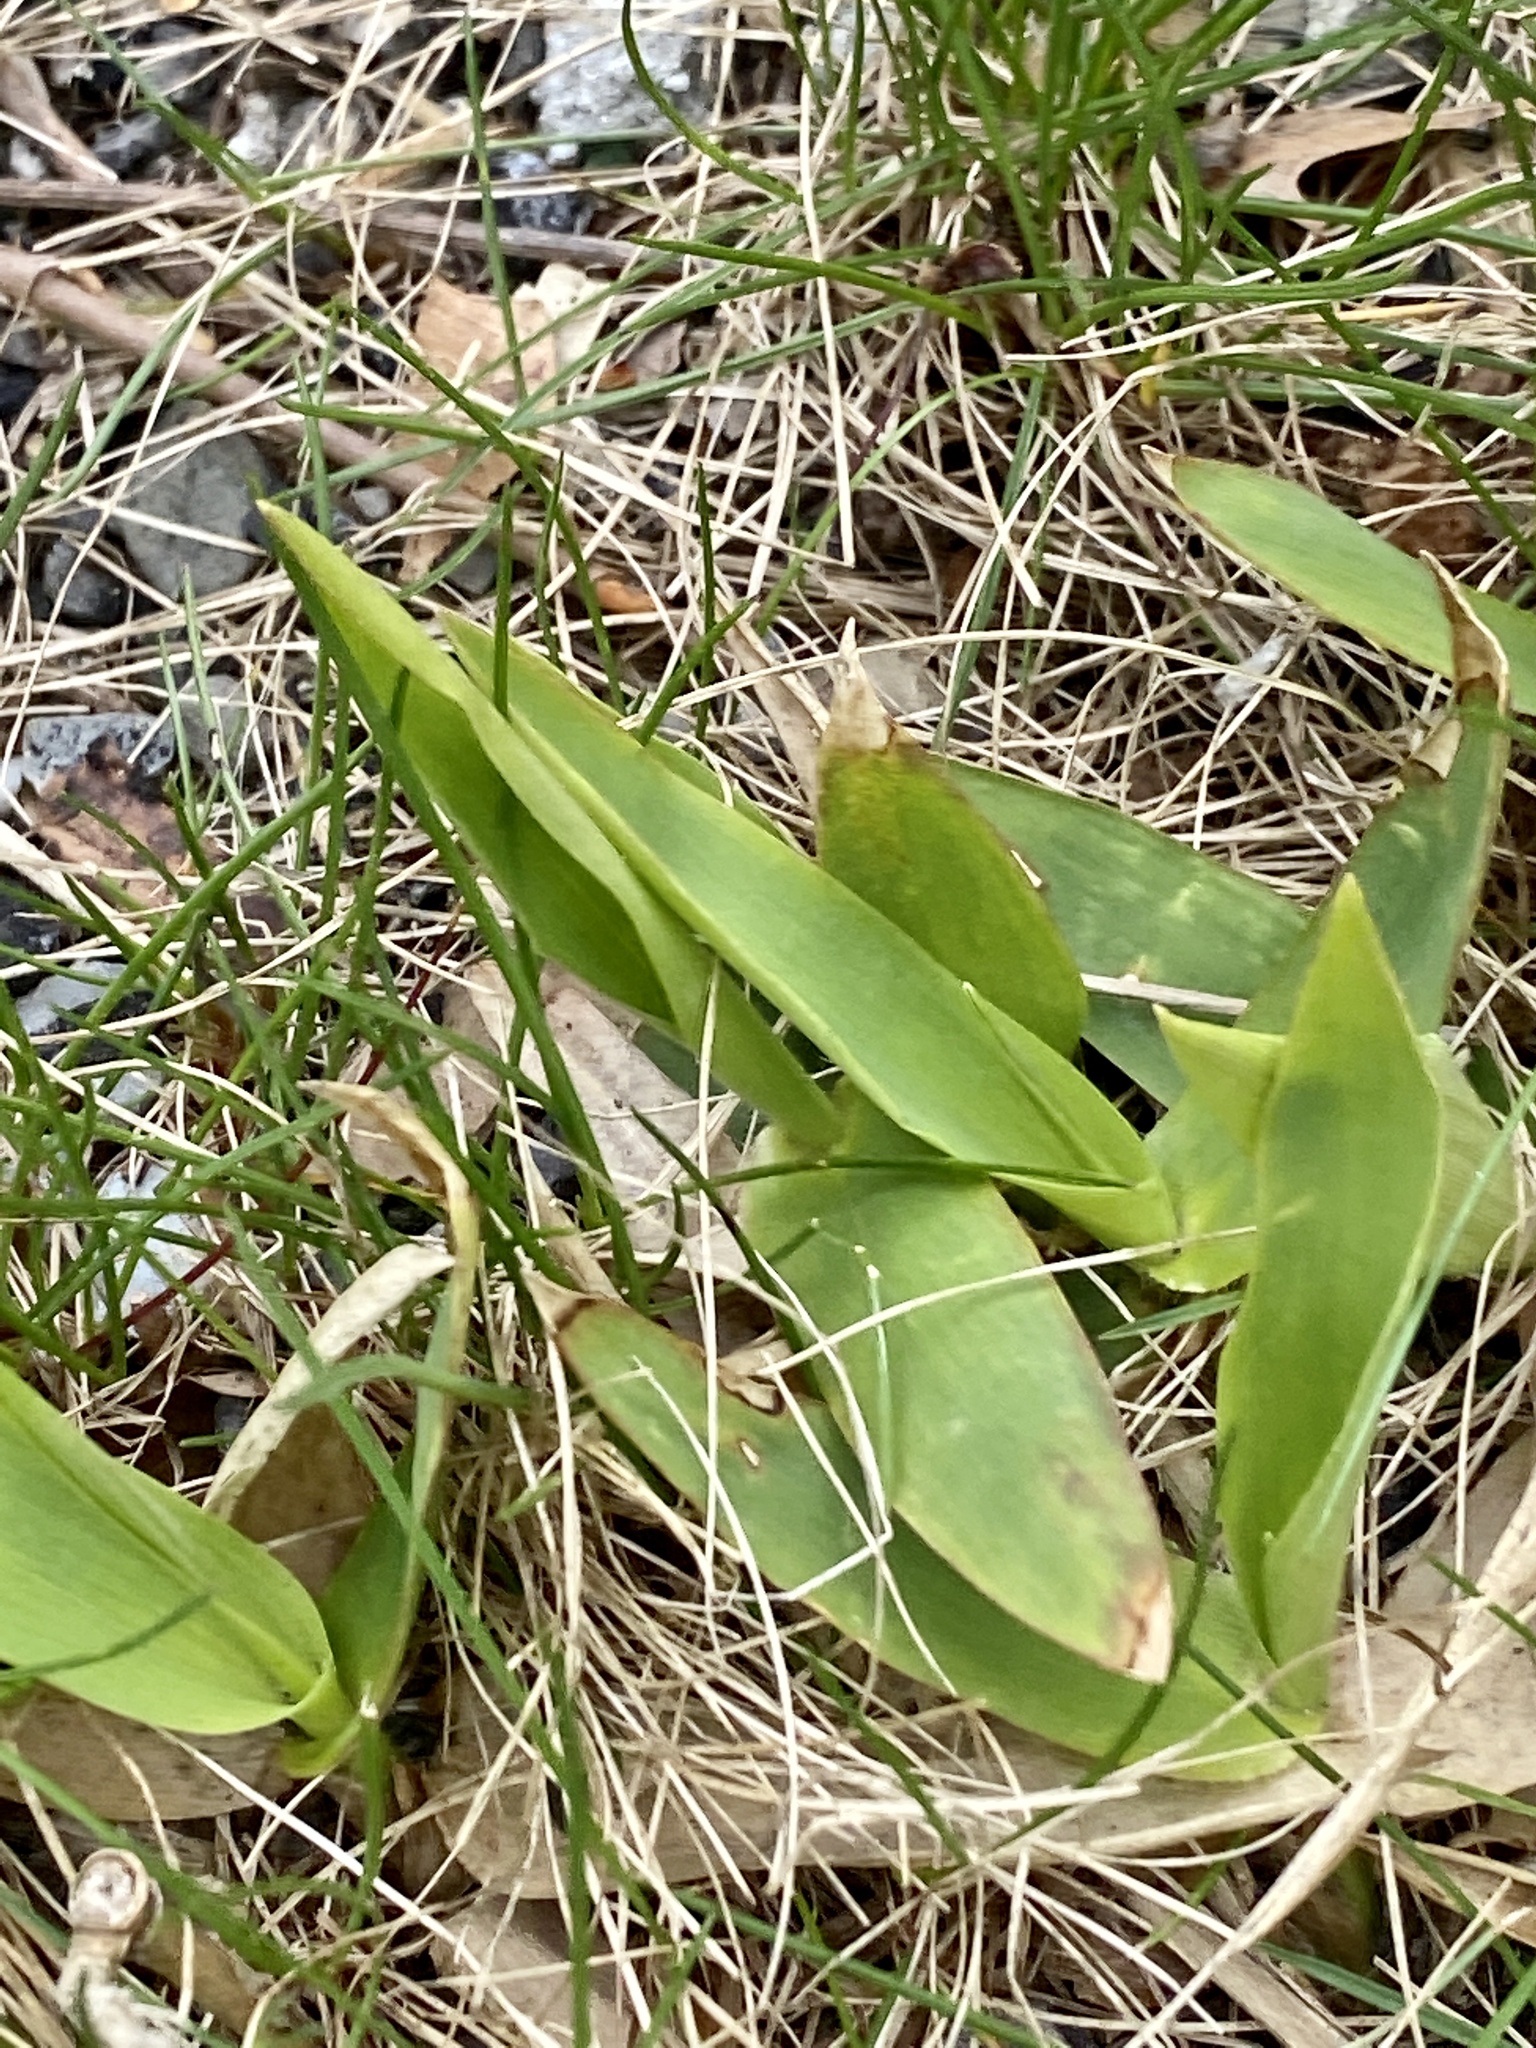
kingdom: Plantae
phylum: Tracheophyta
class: Liliopsida
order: Poales
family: Poaceae
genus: Dichanthelium
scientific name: Dichanthelium clandestinum
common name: Deer-tongue grass
